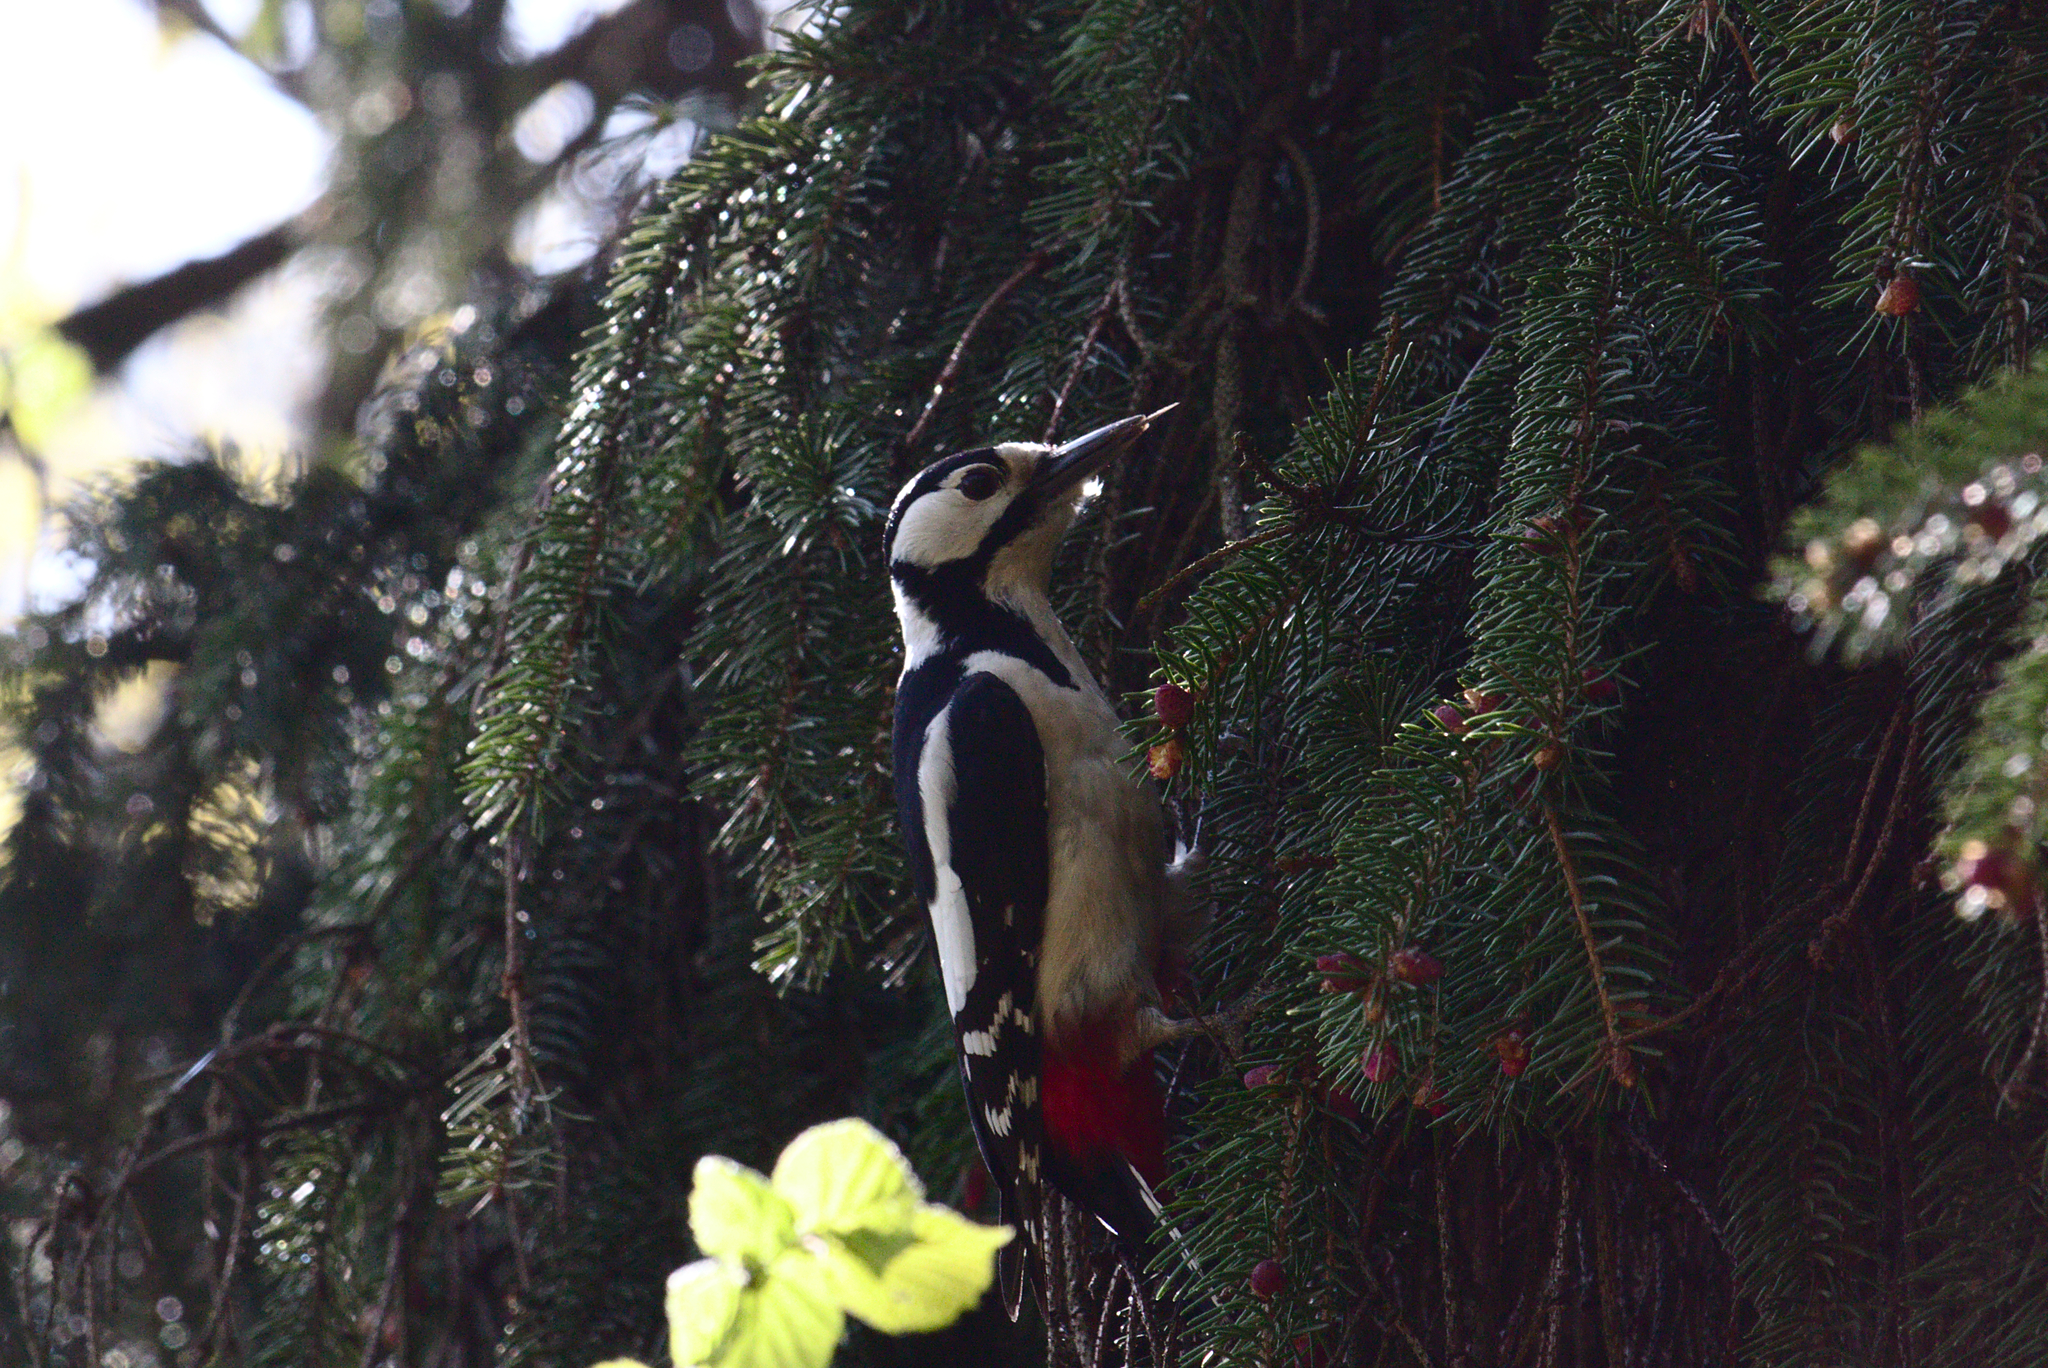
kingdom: Animalia
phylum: Chordata
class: Aves
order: Piciformes
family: Picidae
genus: Dendrocopos
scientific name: Dendrocopos major
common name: Great spotted woodpecker
